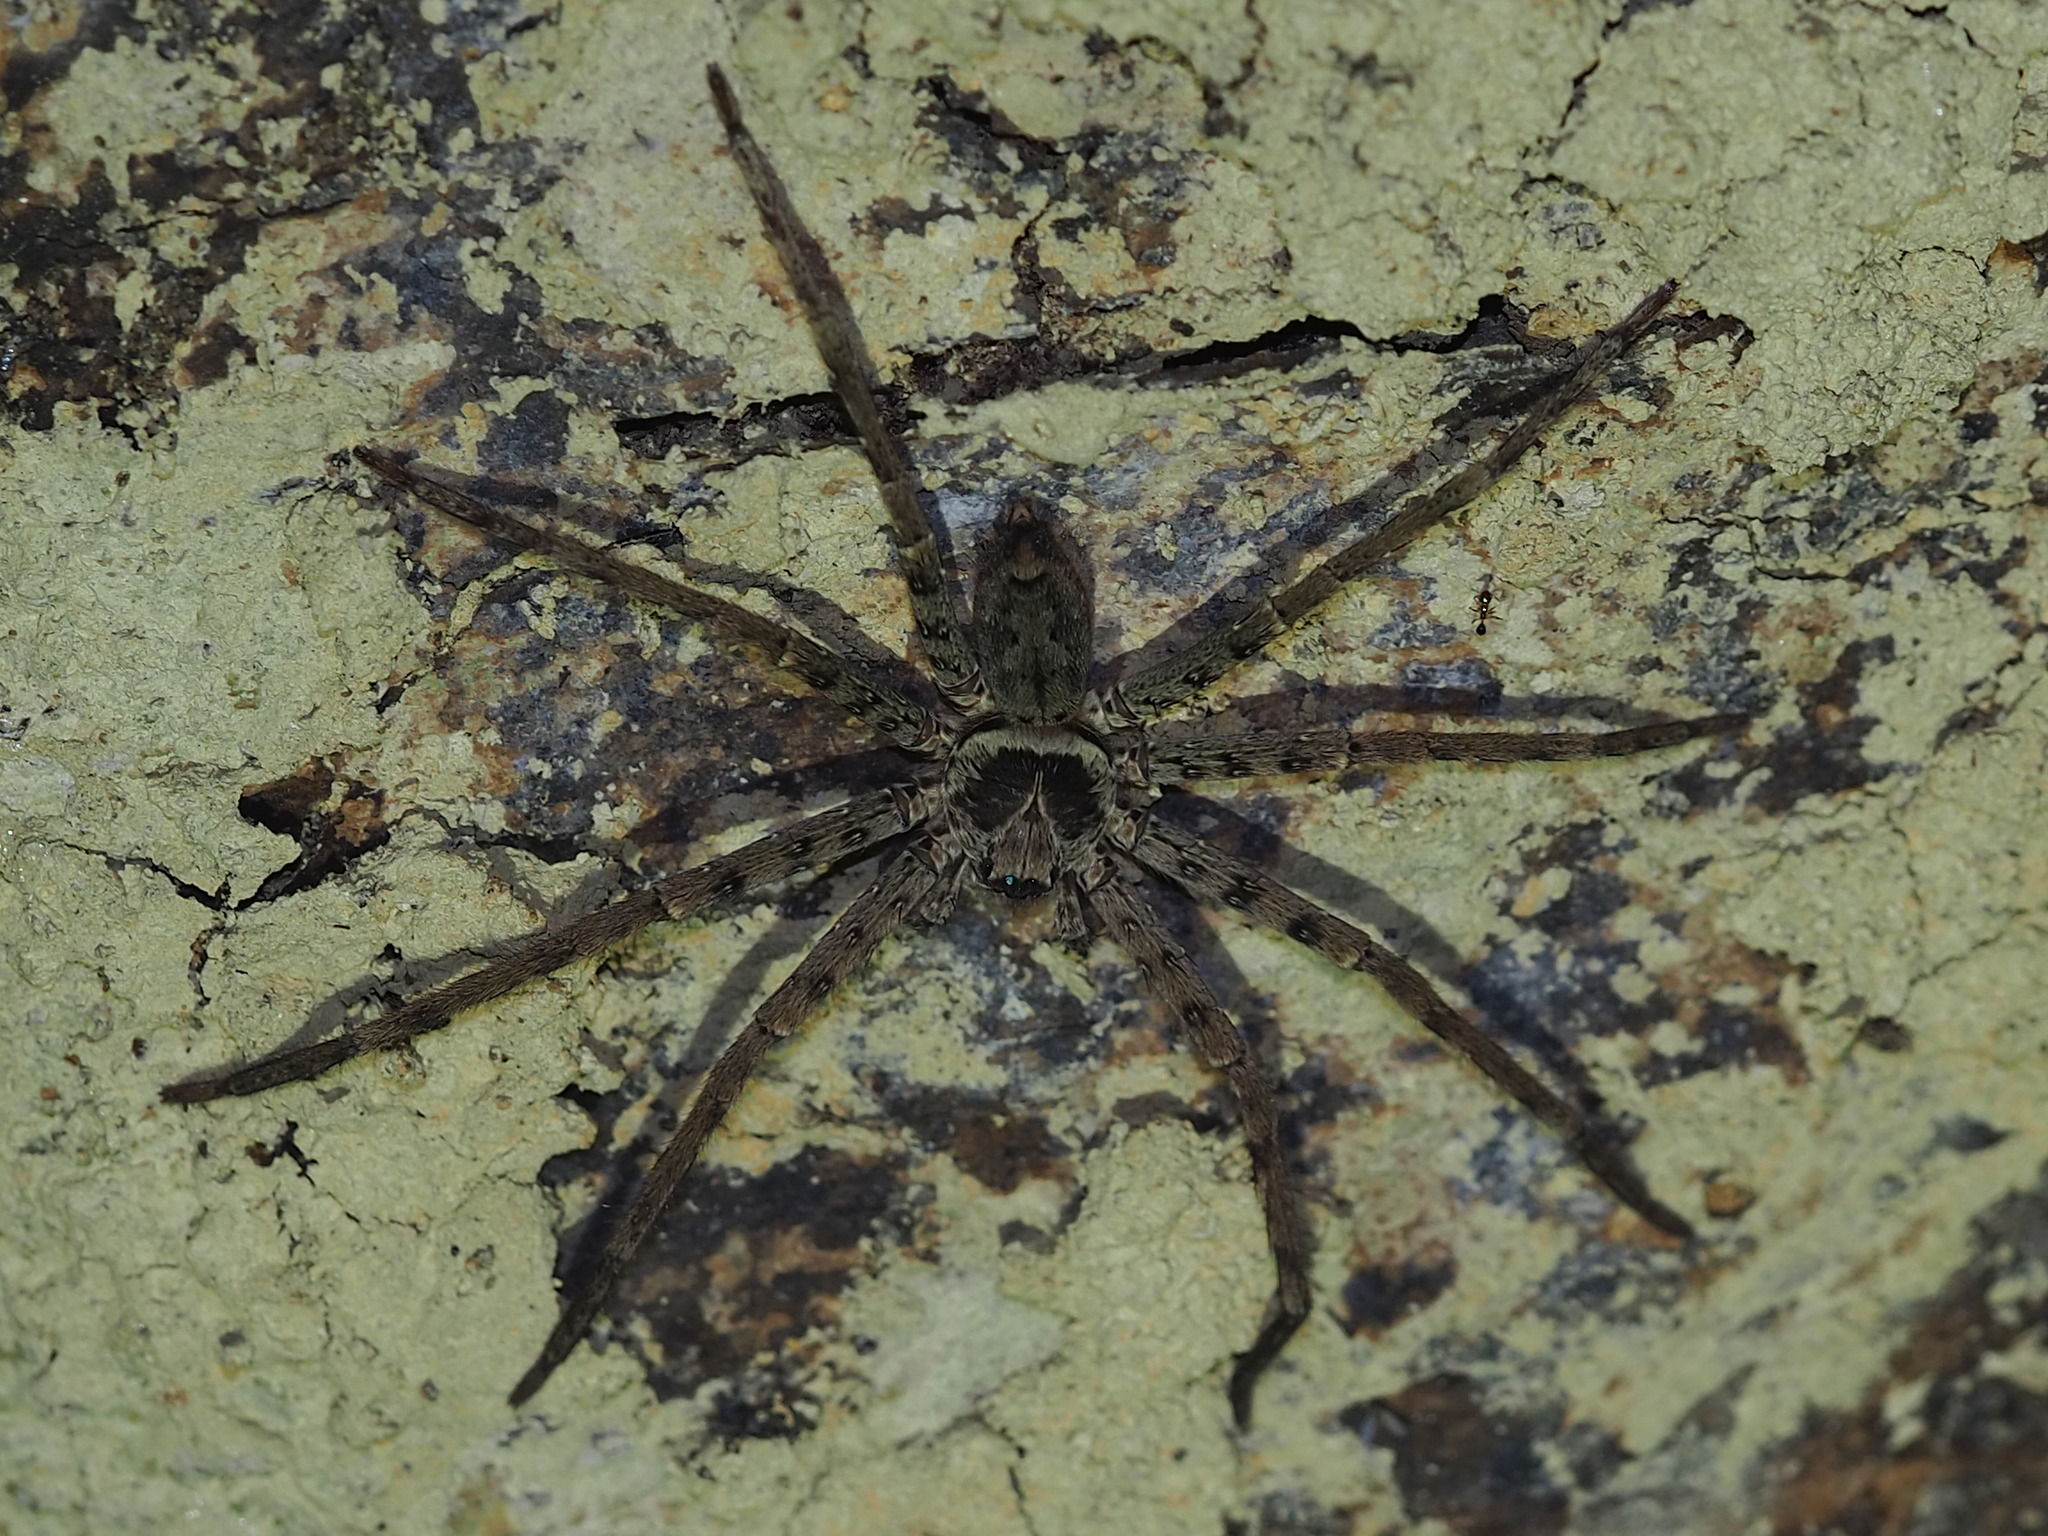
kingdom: Animalia
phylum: Arthropoda
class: Arachnida
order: Araneae
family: Sparassidae
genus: Heteropoda
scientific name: Heteropoda venatoria
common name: Huntsman spider
